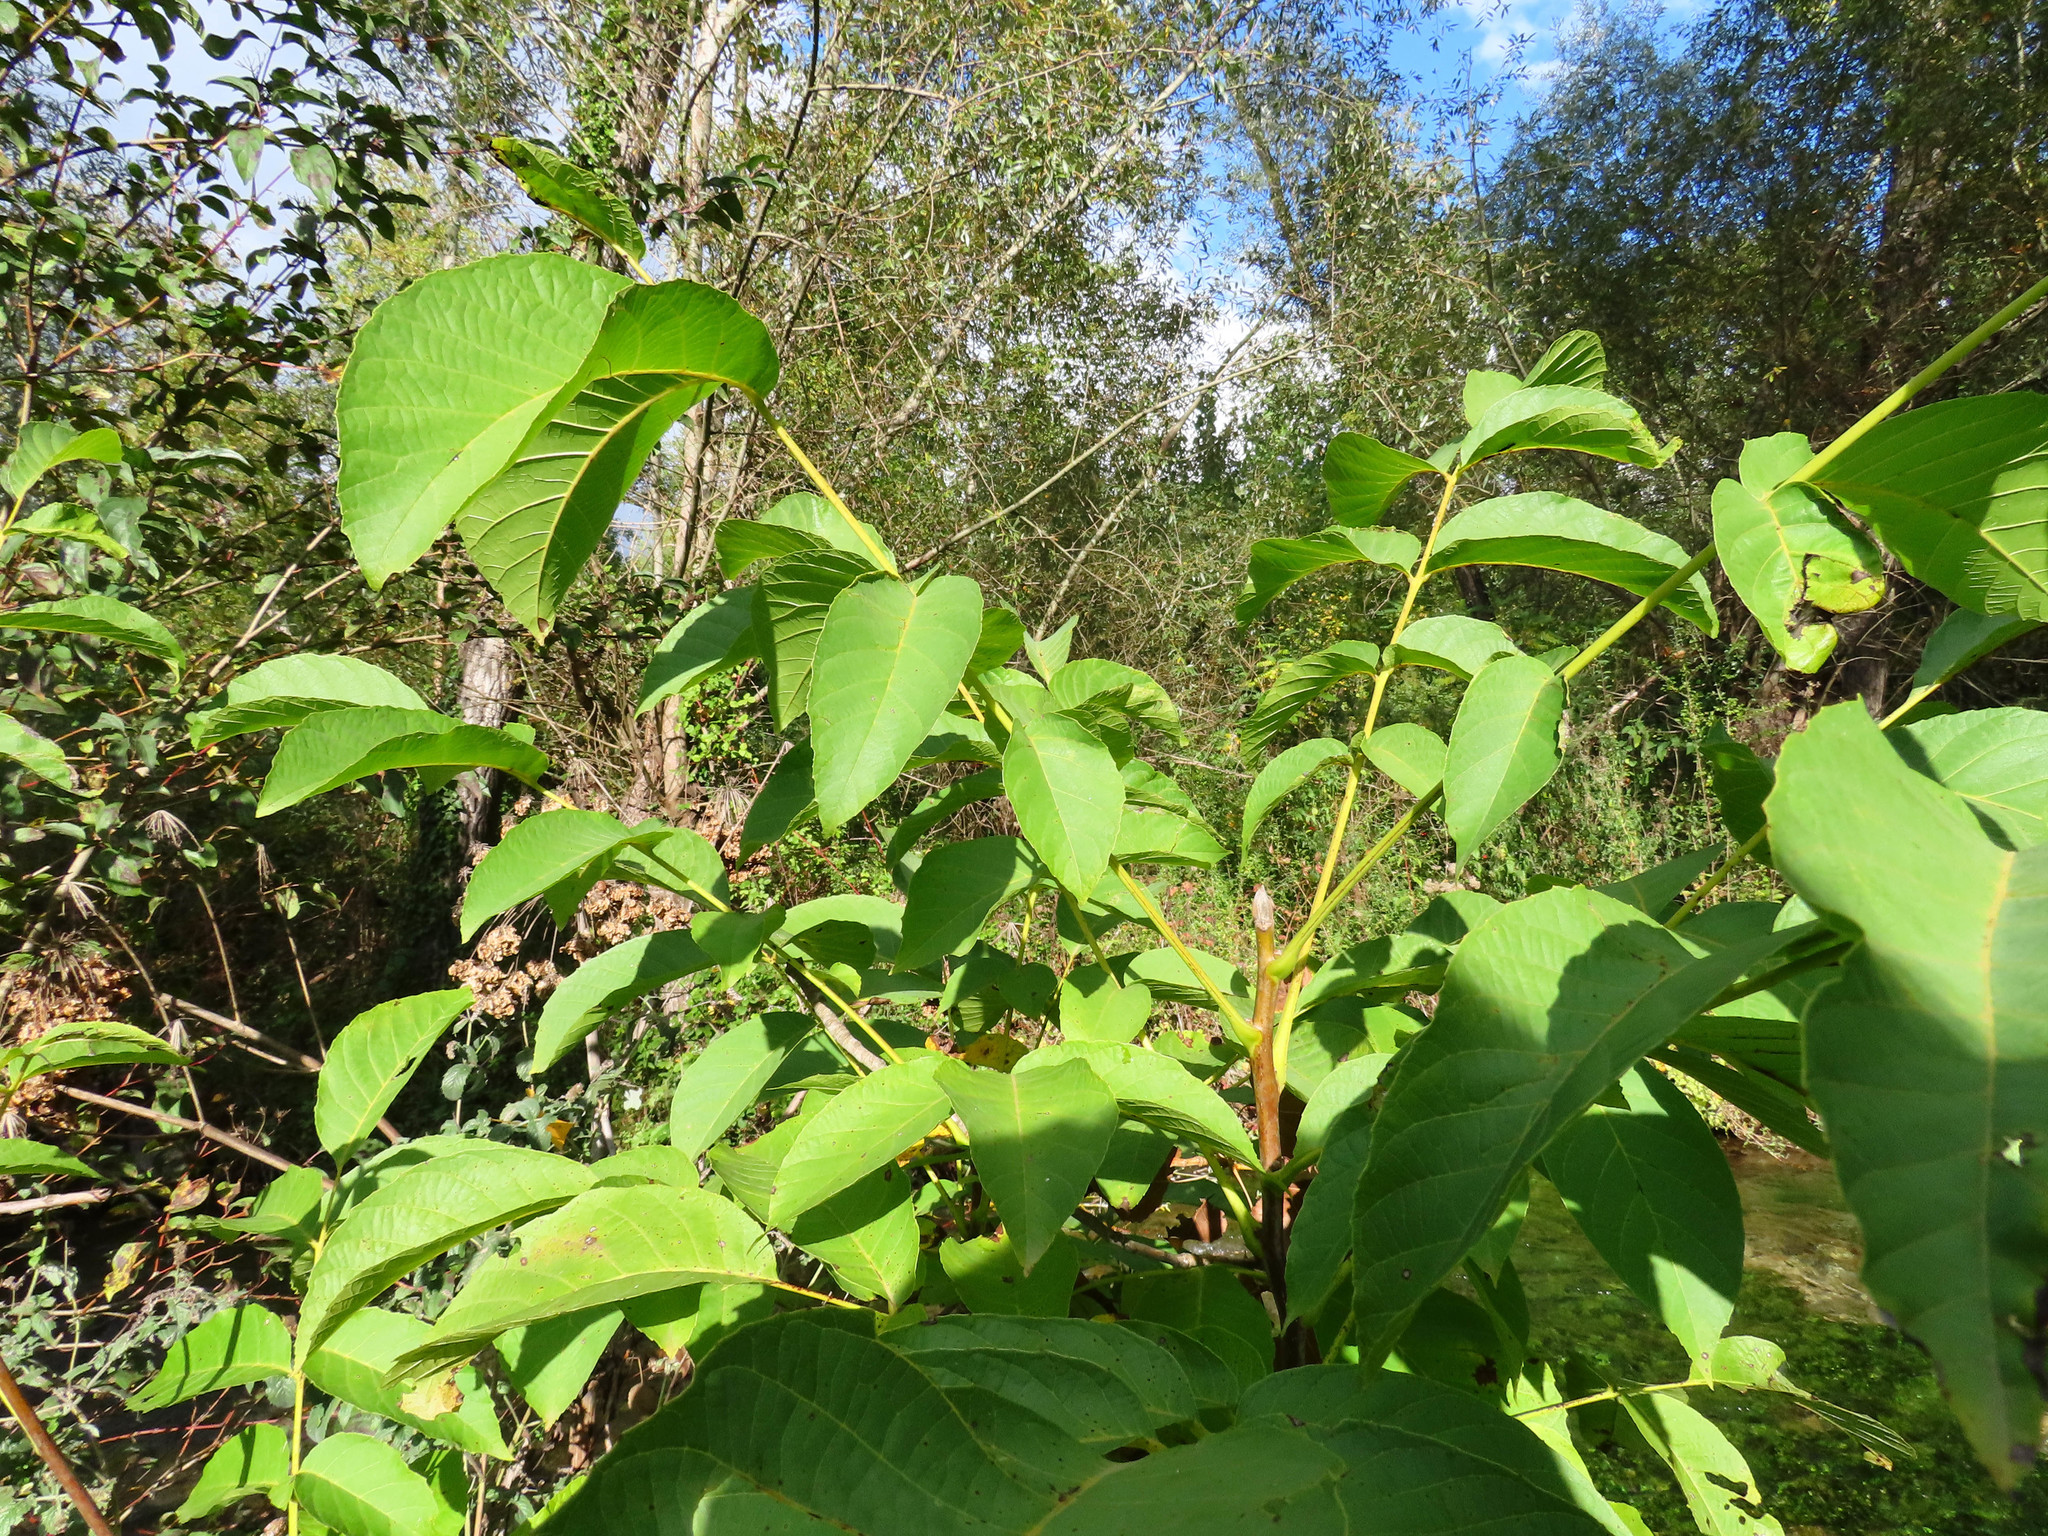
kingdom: Plantae
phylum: Tracheophyta
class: Magnoliopsida
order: Fagales
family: Juglandaceae
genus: Juglans
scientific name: Juglans regia
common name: Walnut
